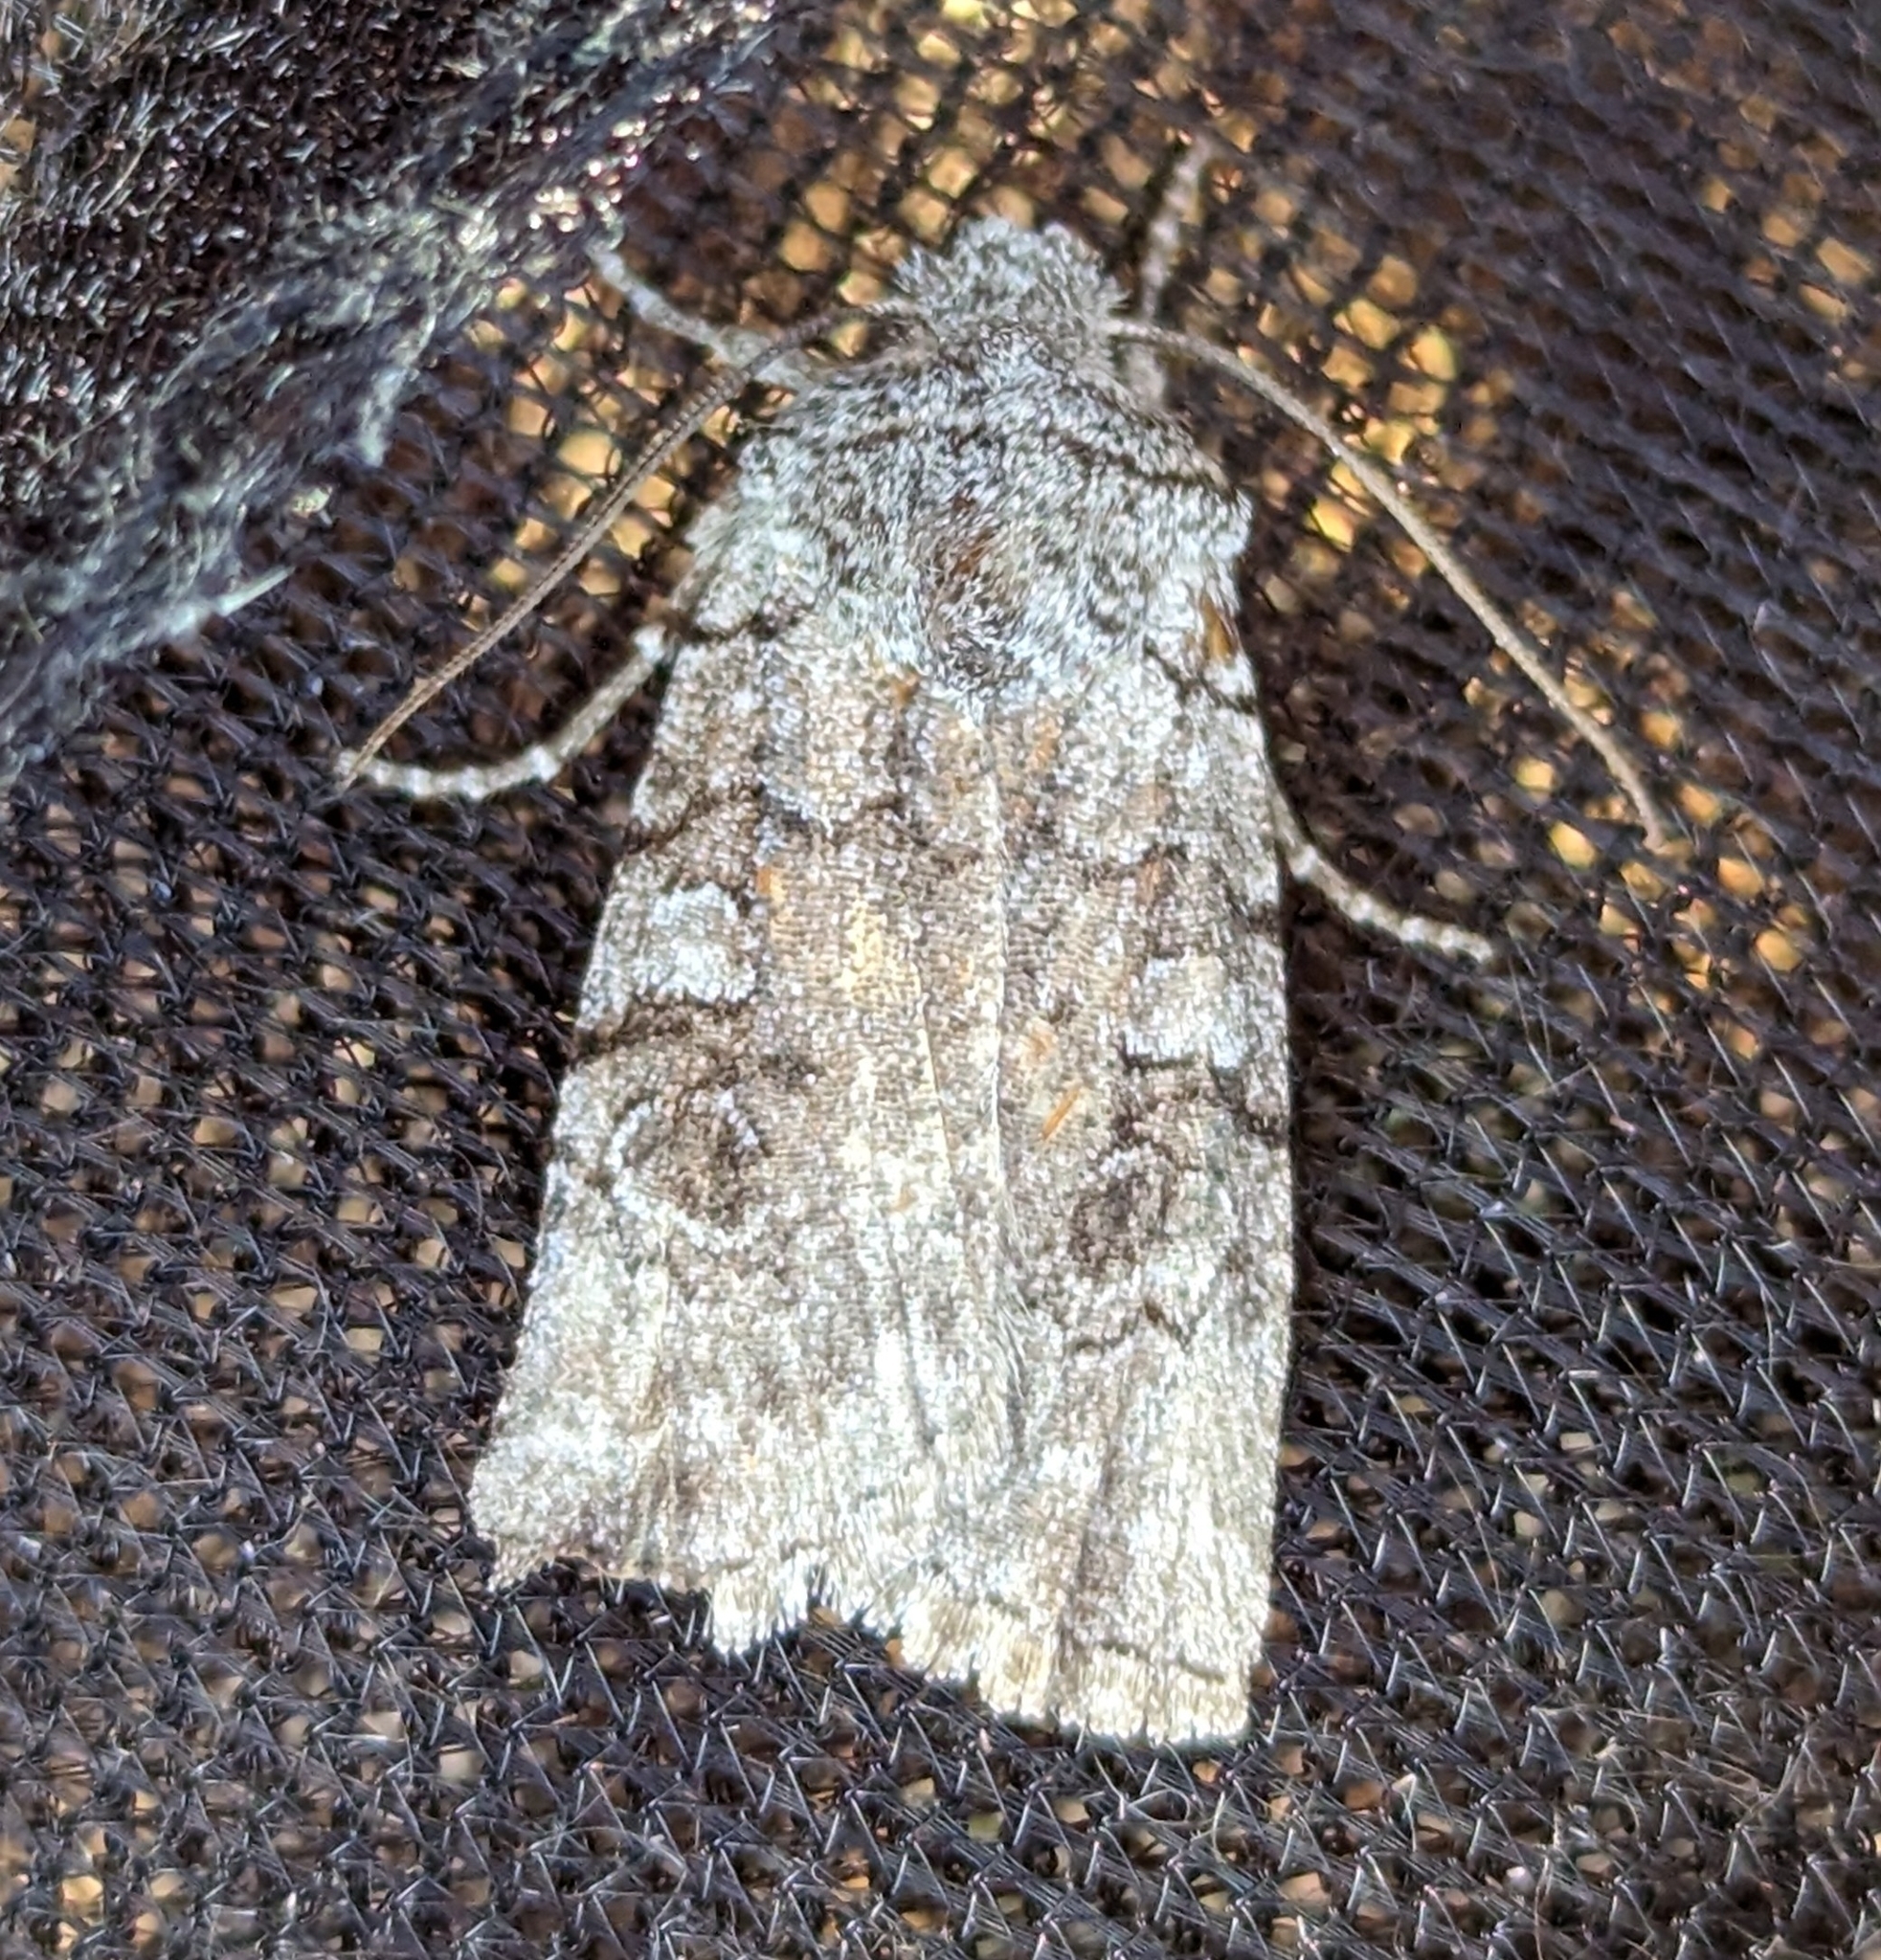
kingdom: Animalia
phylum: Arthropoda
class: Insecta
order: Lepidoptera
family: Noctuidae
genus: Litholomia
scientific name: Litholomia napaea
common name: False pinion moth
